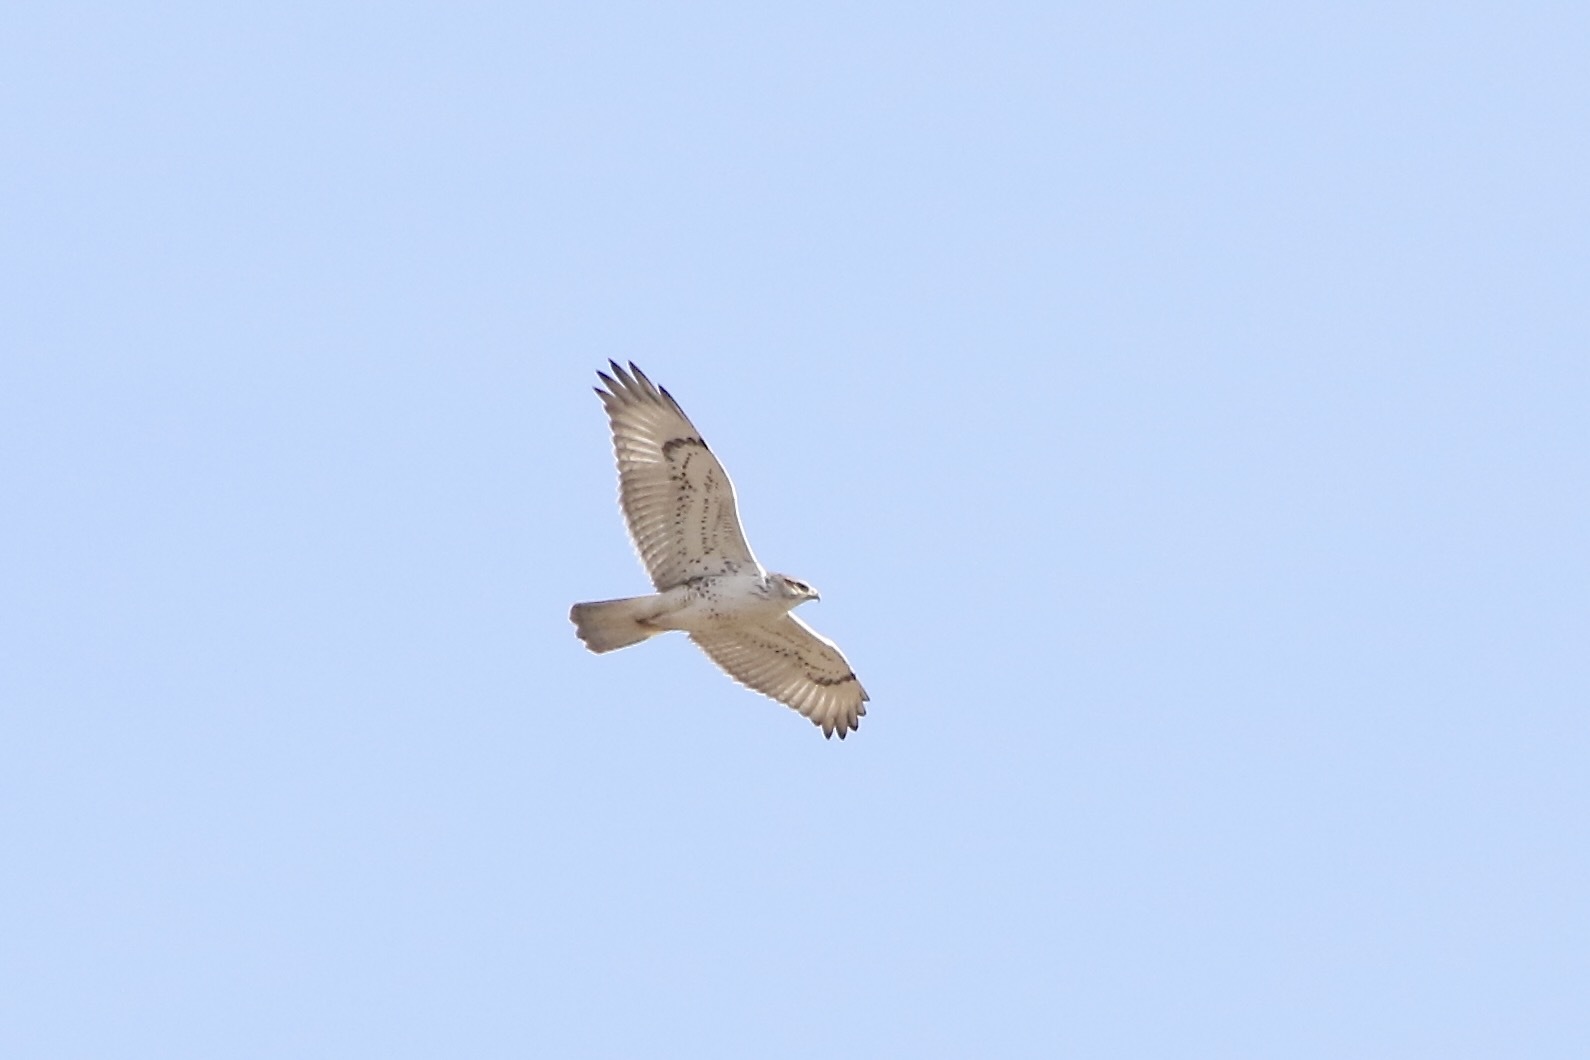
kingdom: Animalia
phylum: Chordata
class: Aves
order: Accipitriformes
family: Accipitridae
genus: Buteo
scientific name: Buteo regalis
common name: Ferruginous hawk
